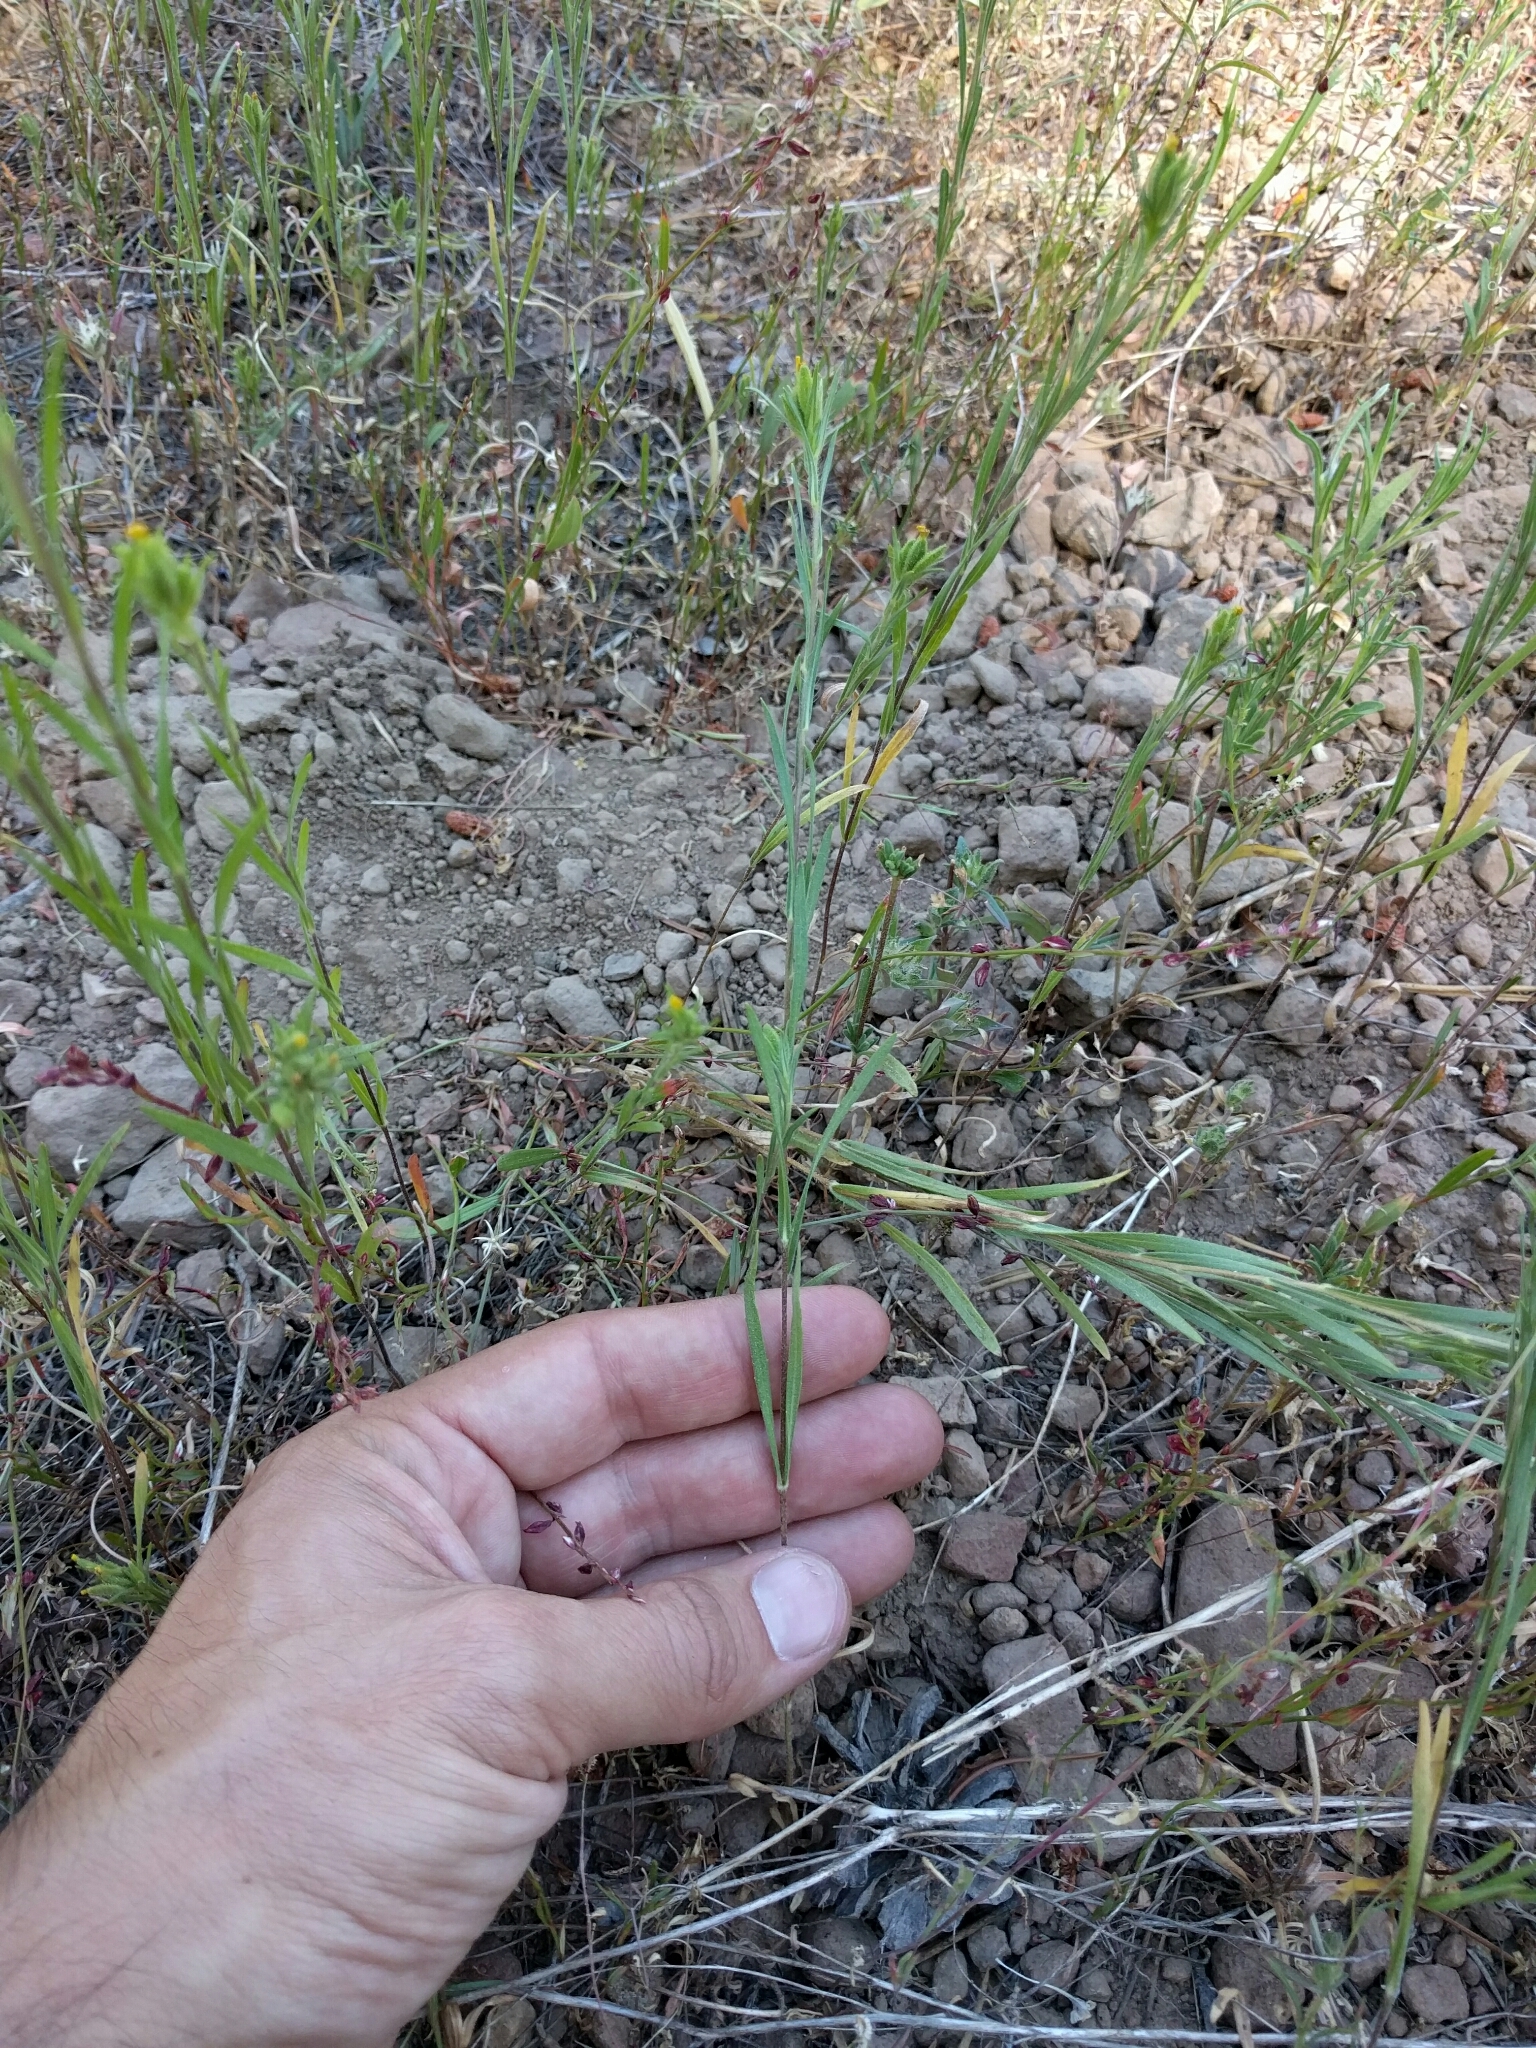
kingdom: Plantae
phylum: Tracheophyta
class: Magnoliopsida
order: Asterales
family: Asteraceae
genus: Madia
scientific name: Madia glomerata
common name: Mountain tarweed
